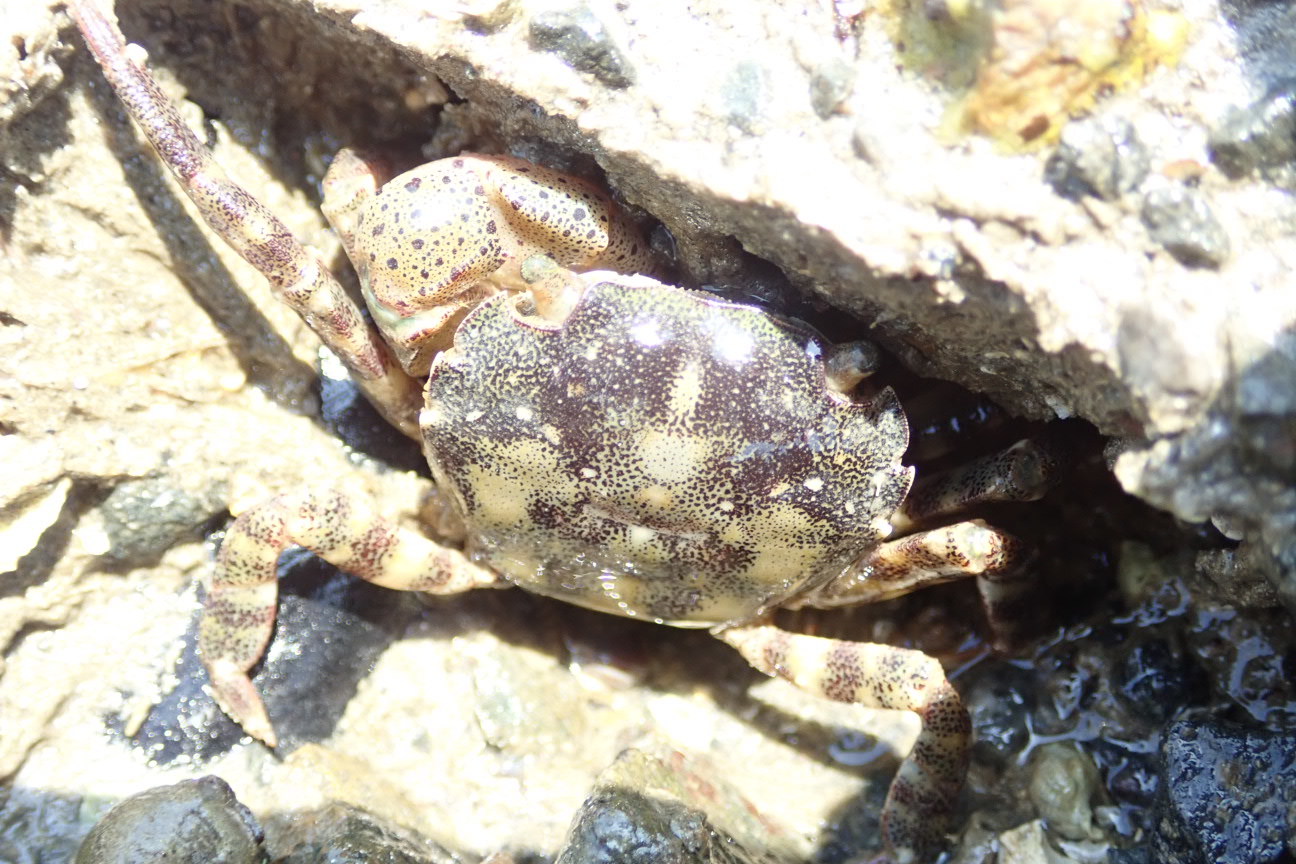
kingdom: Animalia
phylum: Arthropoda
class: Malacostraca
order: Decapoda
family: Varunidae
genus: Hemigrapsus
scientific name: Hemigrapsus sanguineus
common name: Asian shore crab
